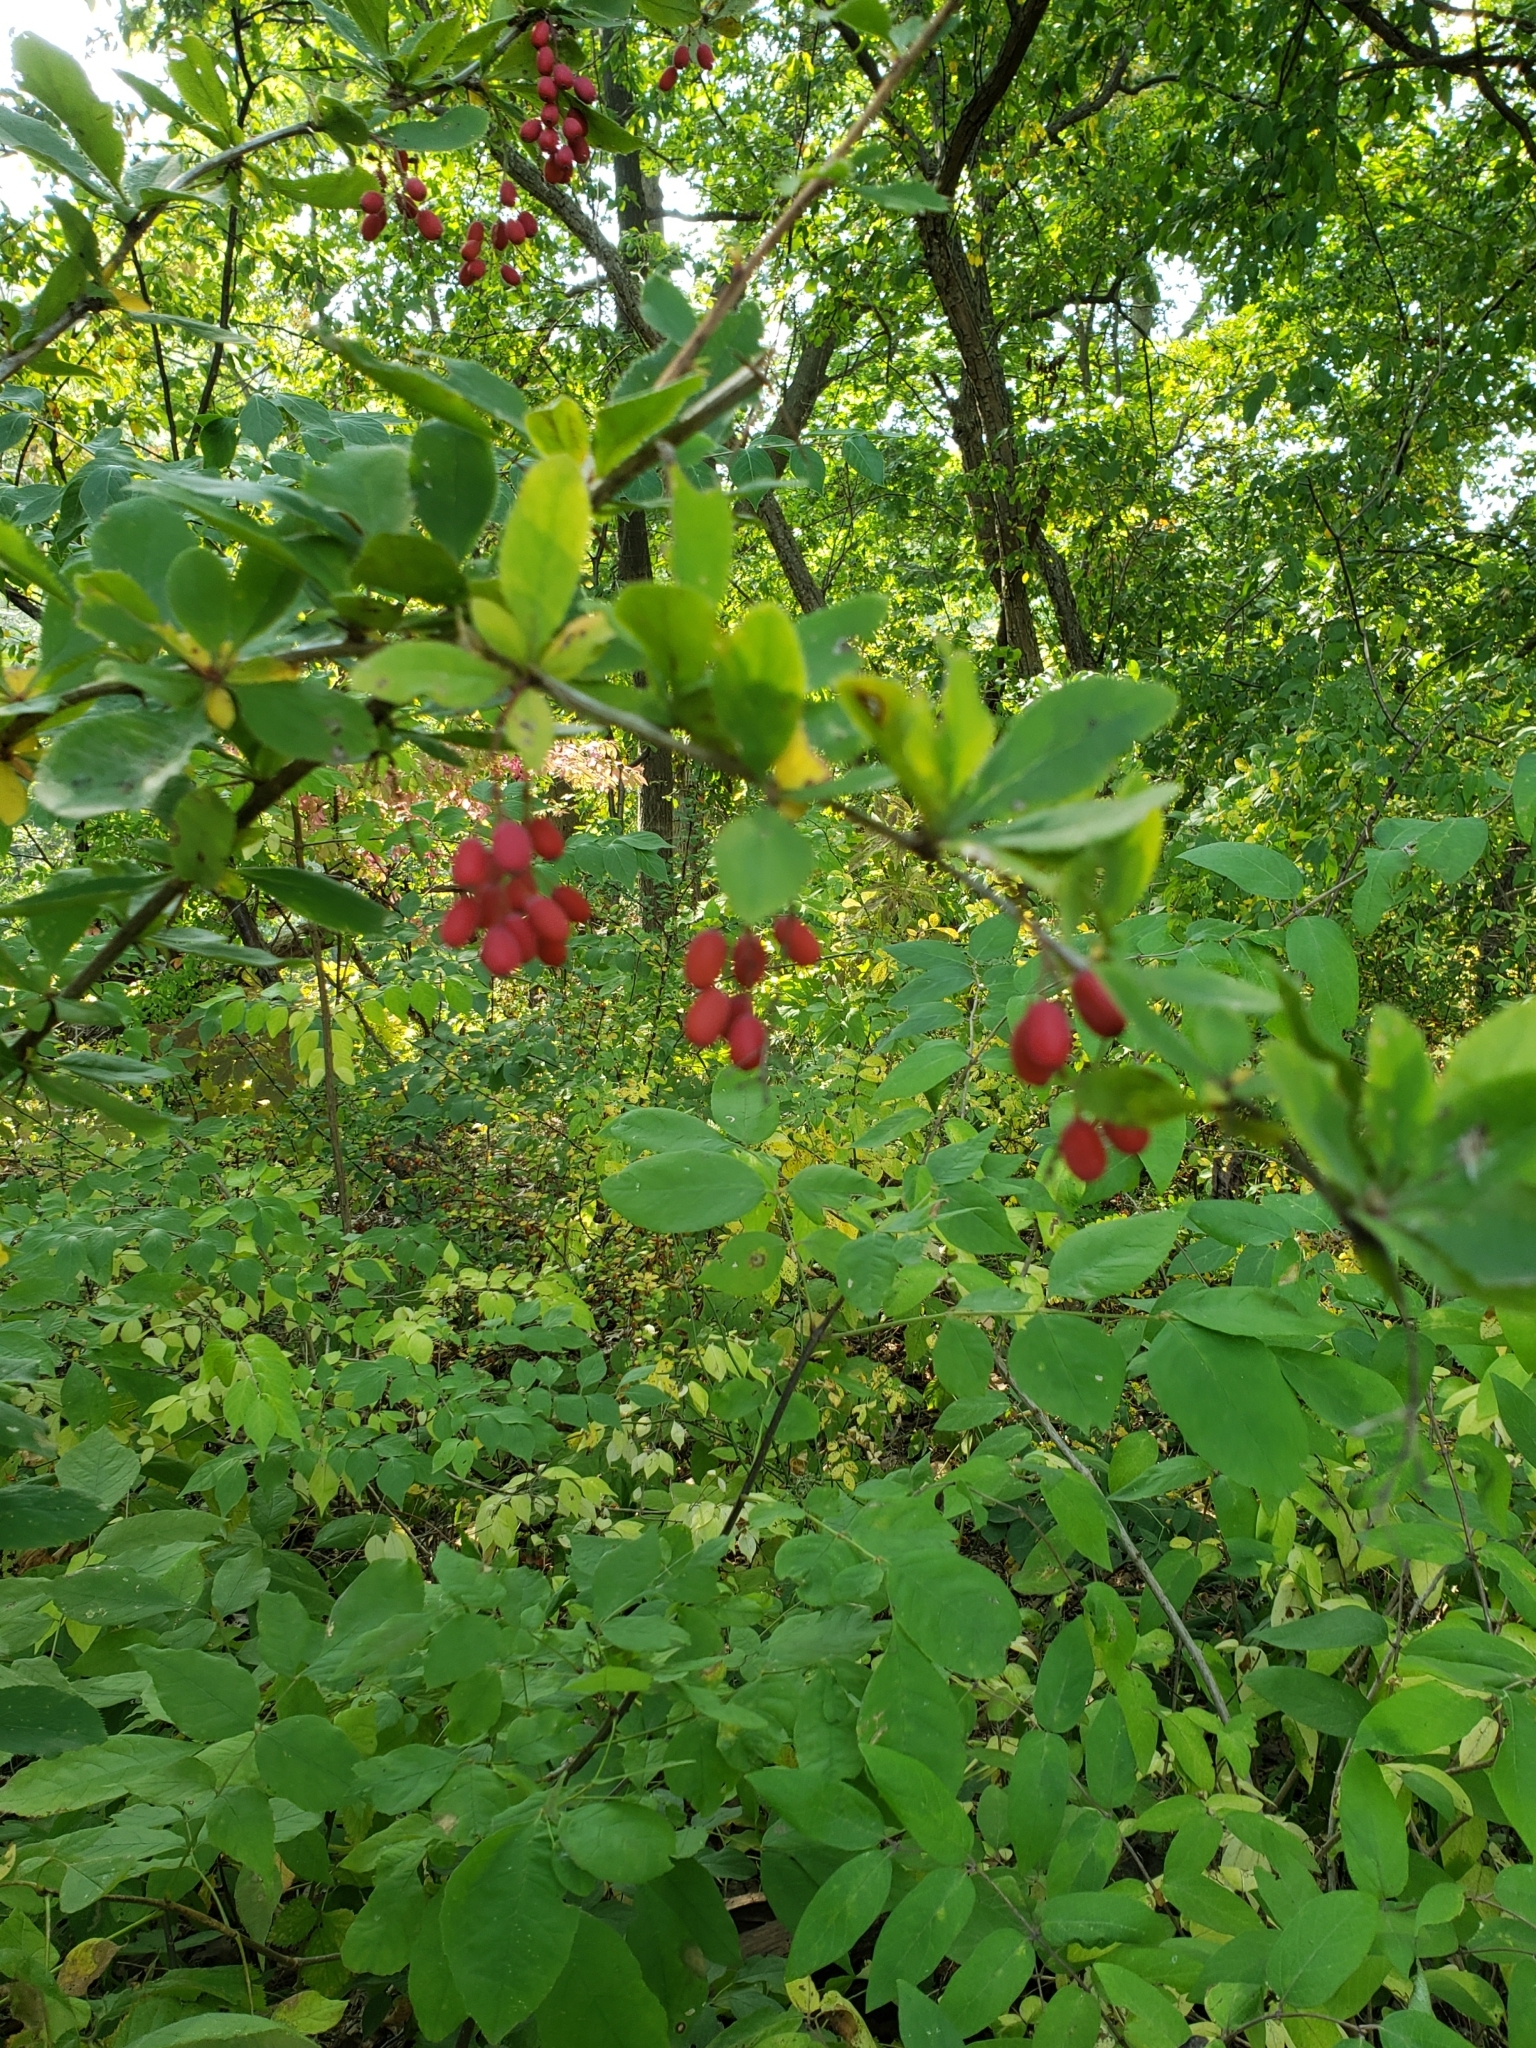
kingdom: Plantae
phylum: Tracheophyta
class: Magnoliopsida
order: Ranunculales
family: Berberidaceae
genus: Berberis
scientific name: Berberis vulgaris
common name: Barberry
